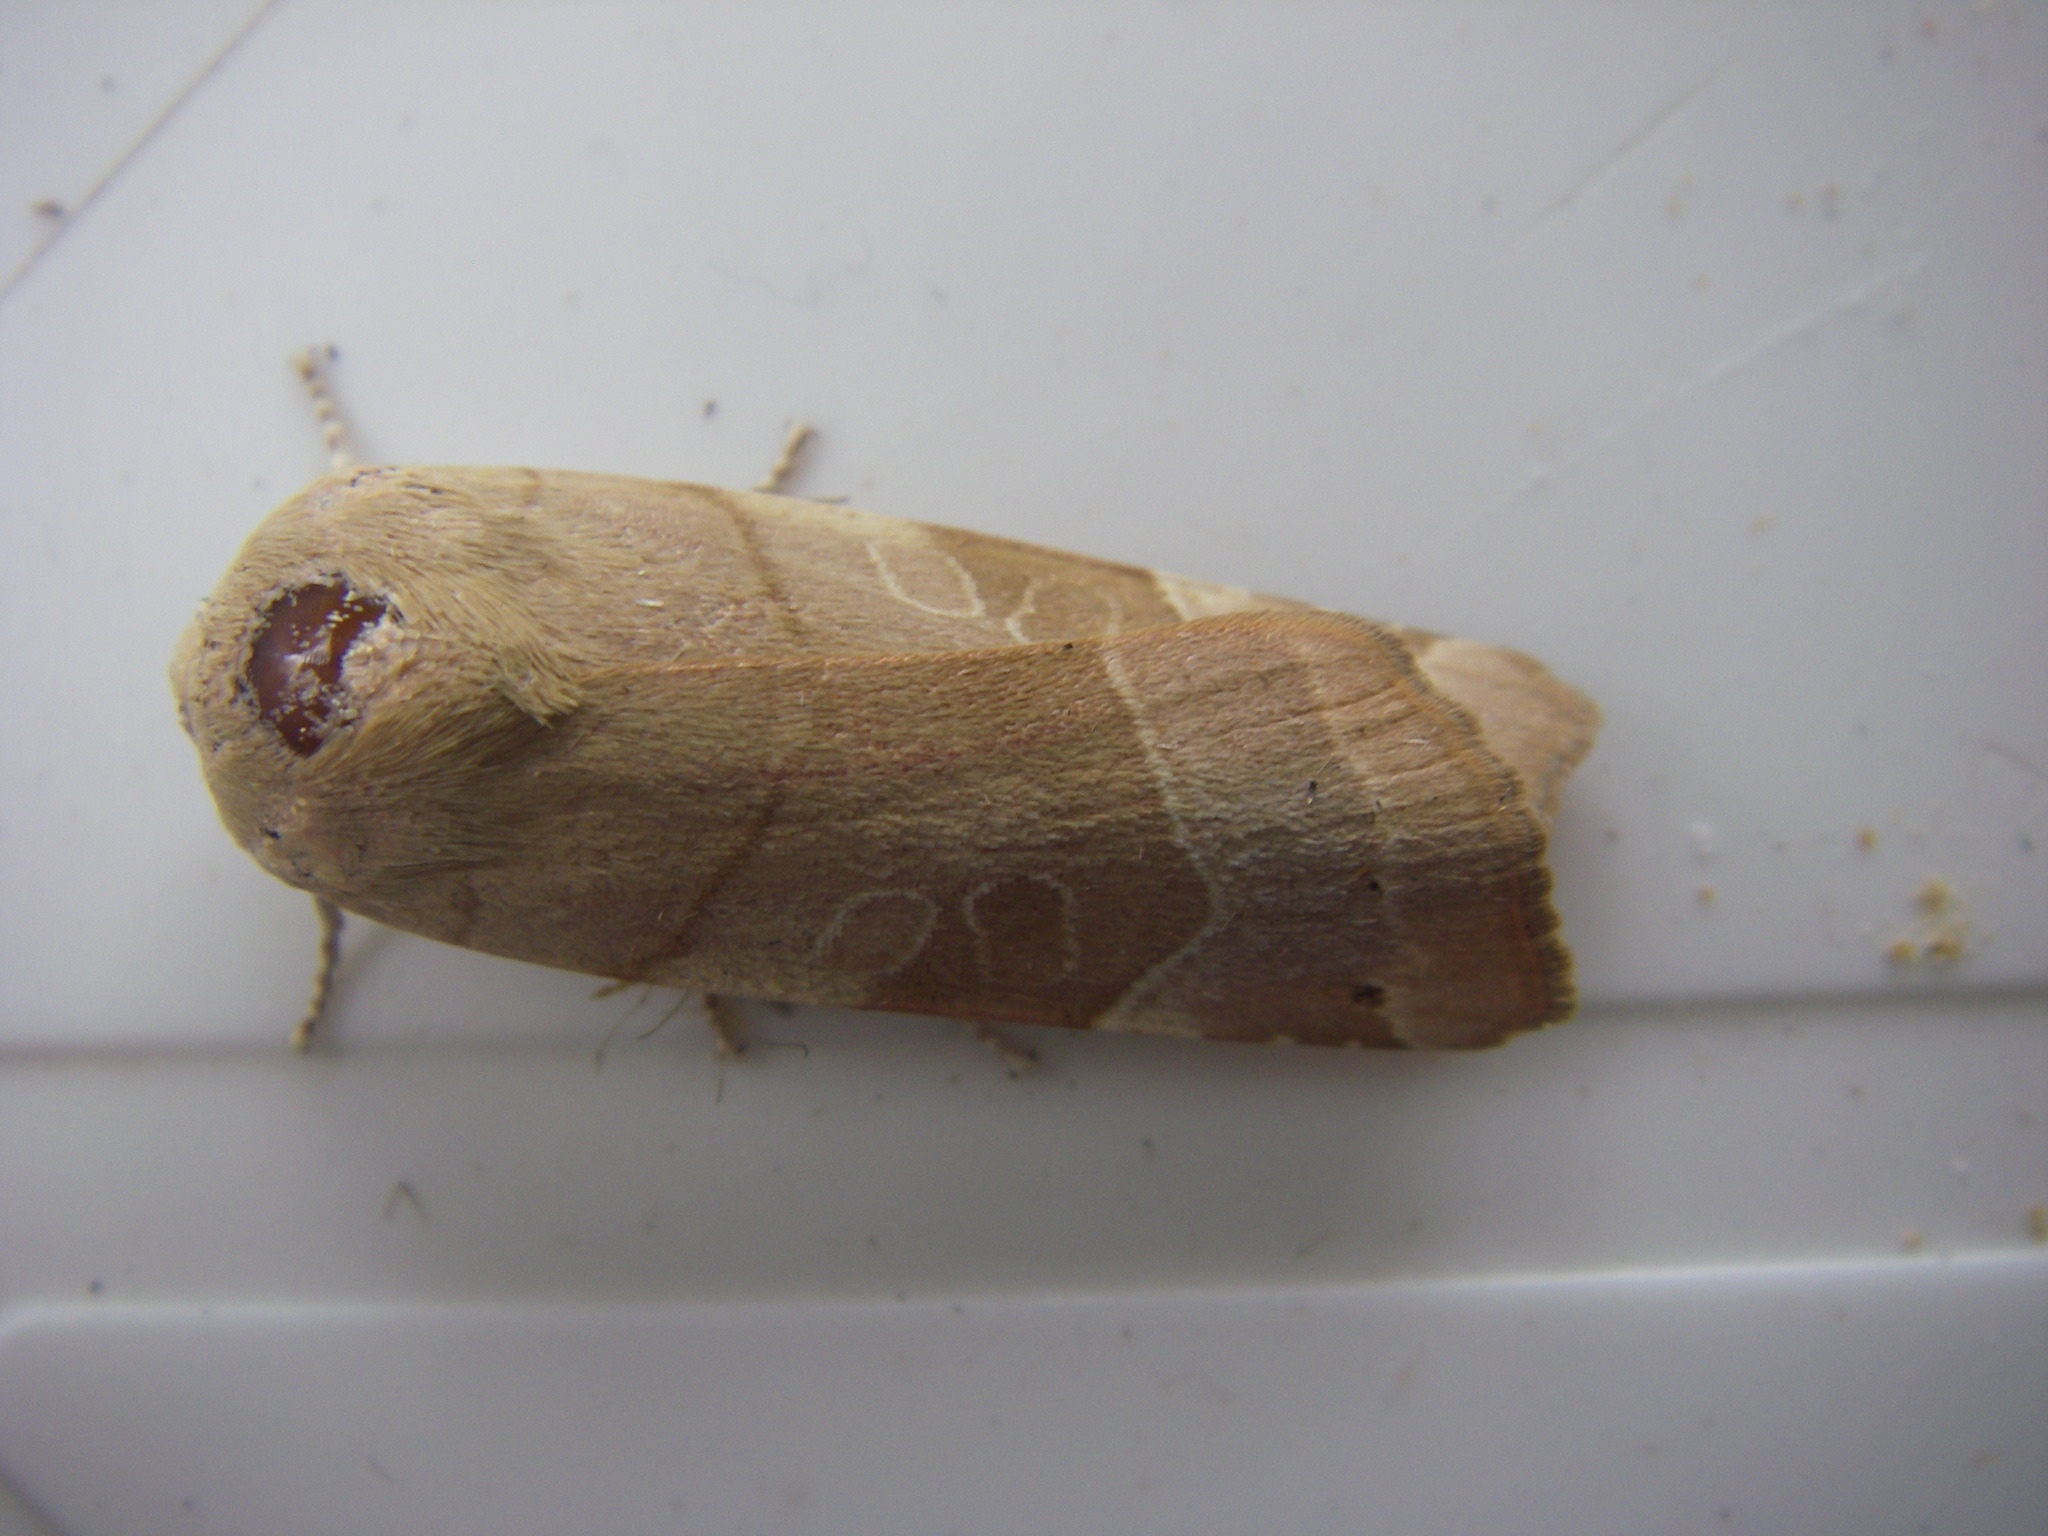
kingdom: Animalia
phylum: Arthropoda
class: Insecta
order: Lepidoptera
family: Noctuidae
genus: Noctua
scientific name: Noctua fimbriata
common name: Broad-bordered yellow underwing
